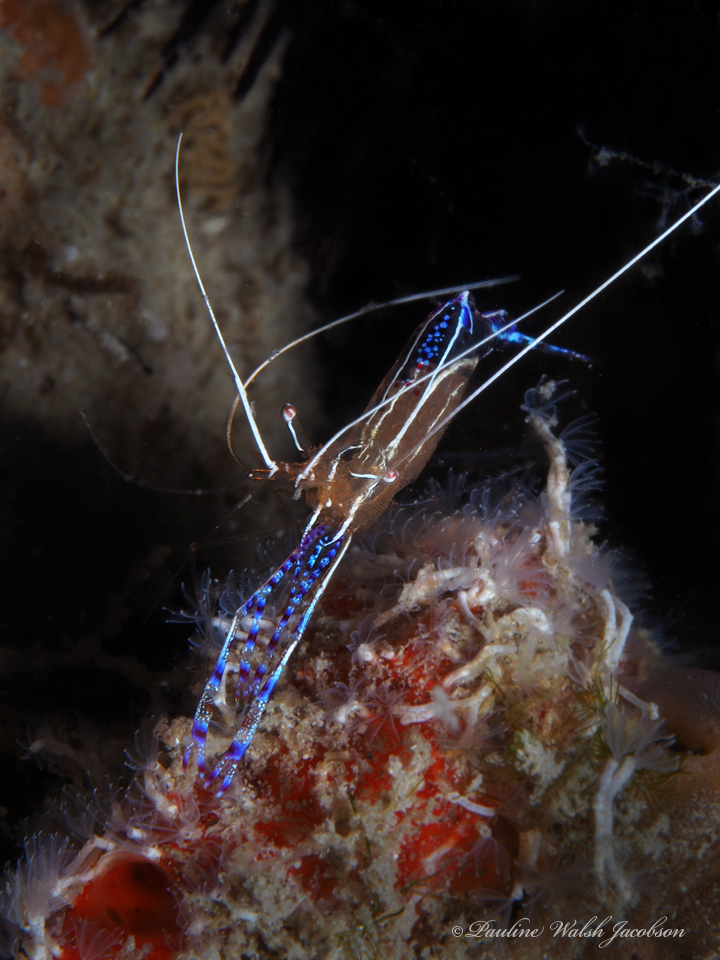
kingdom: Animalia
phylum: Arthropoda
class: Malacostraca
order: Decapoda
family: Palaemonidae
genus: Ancylomenes
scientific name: Ancylomenes pedersoni
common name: Pederson's cleaning shrimp
